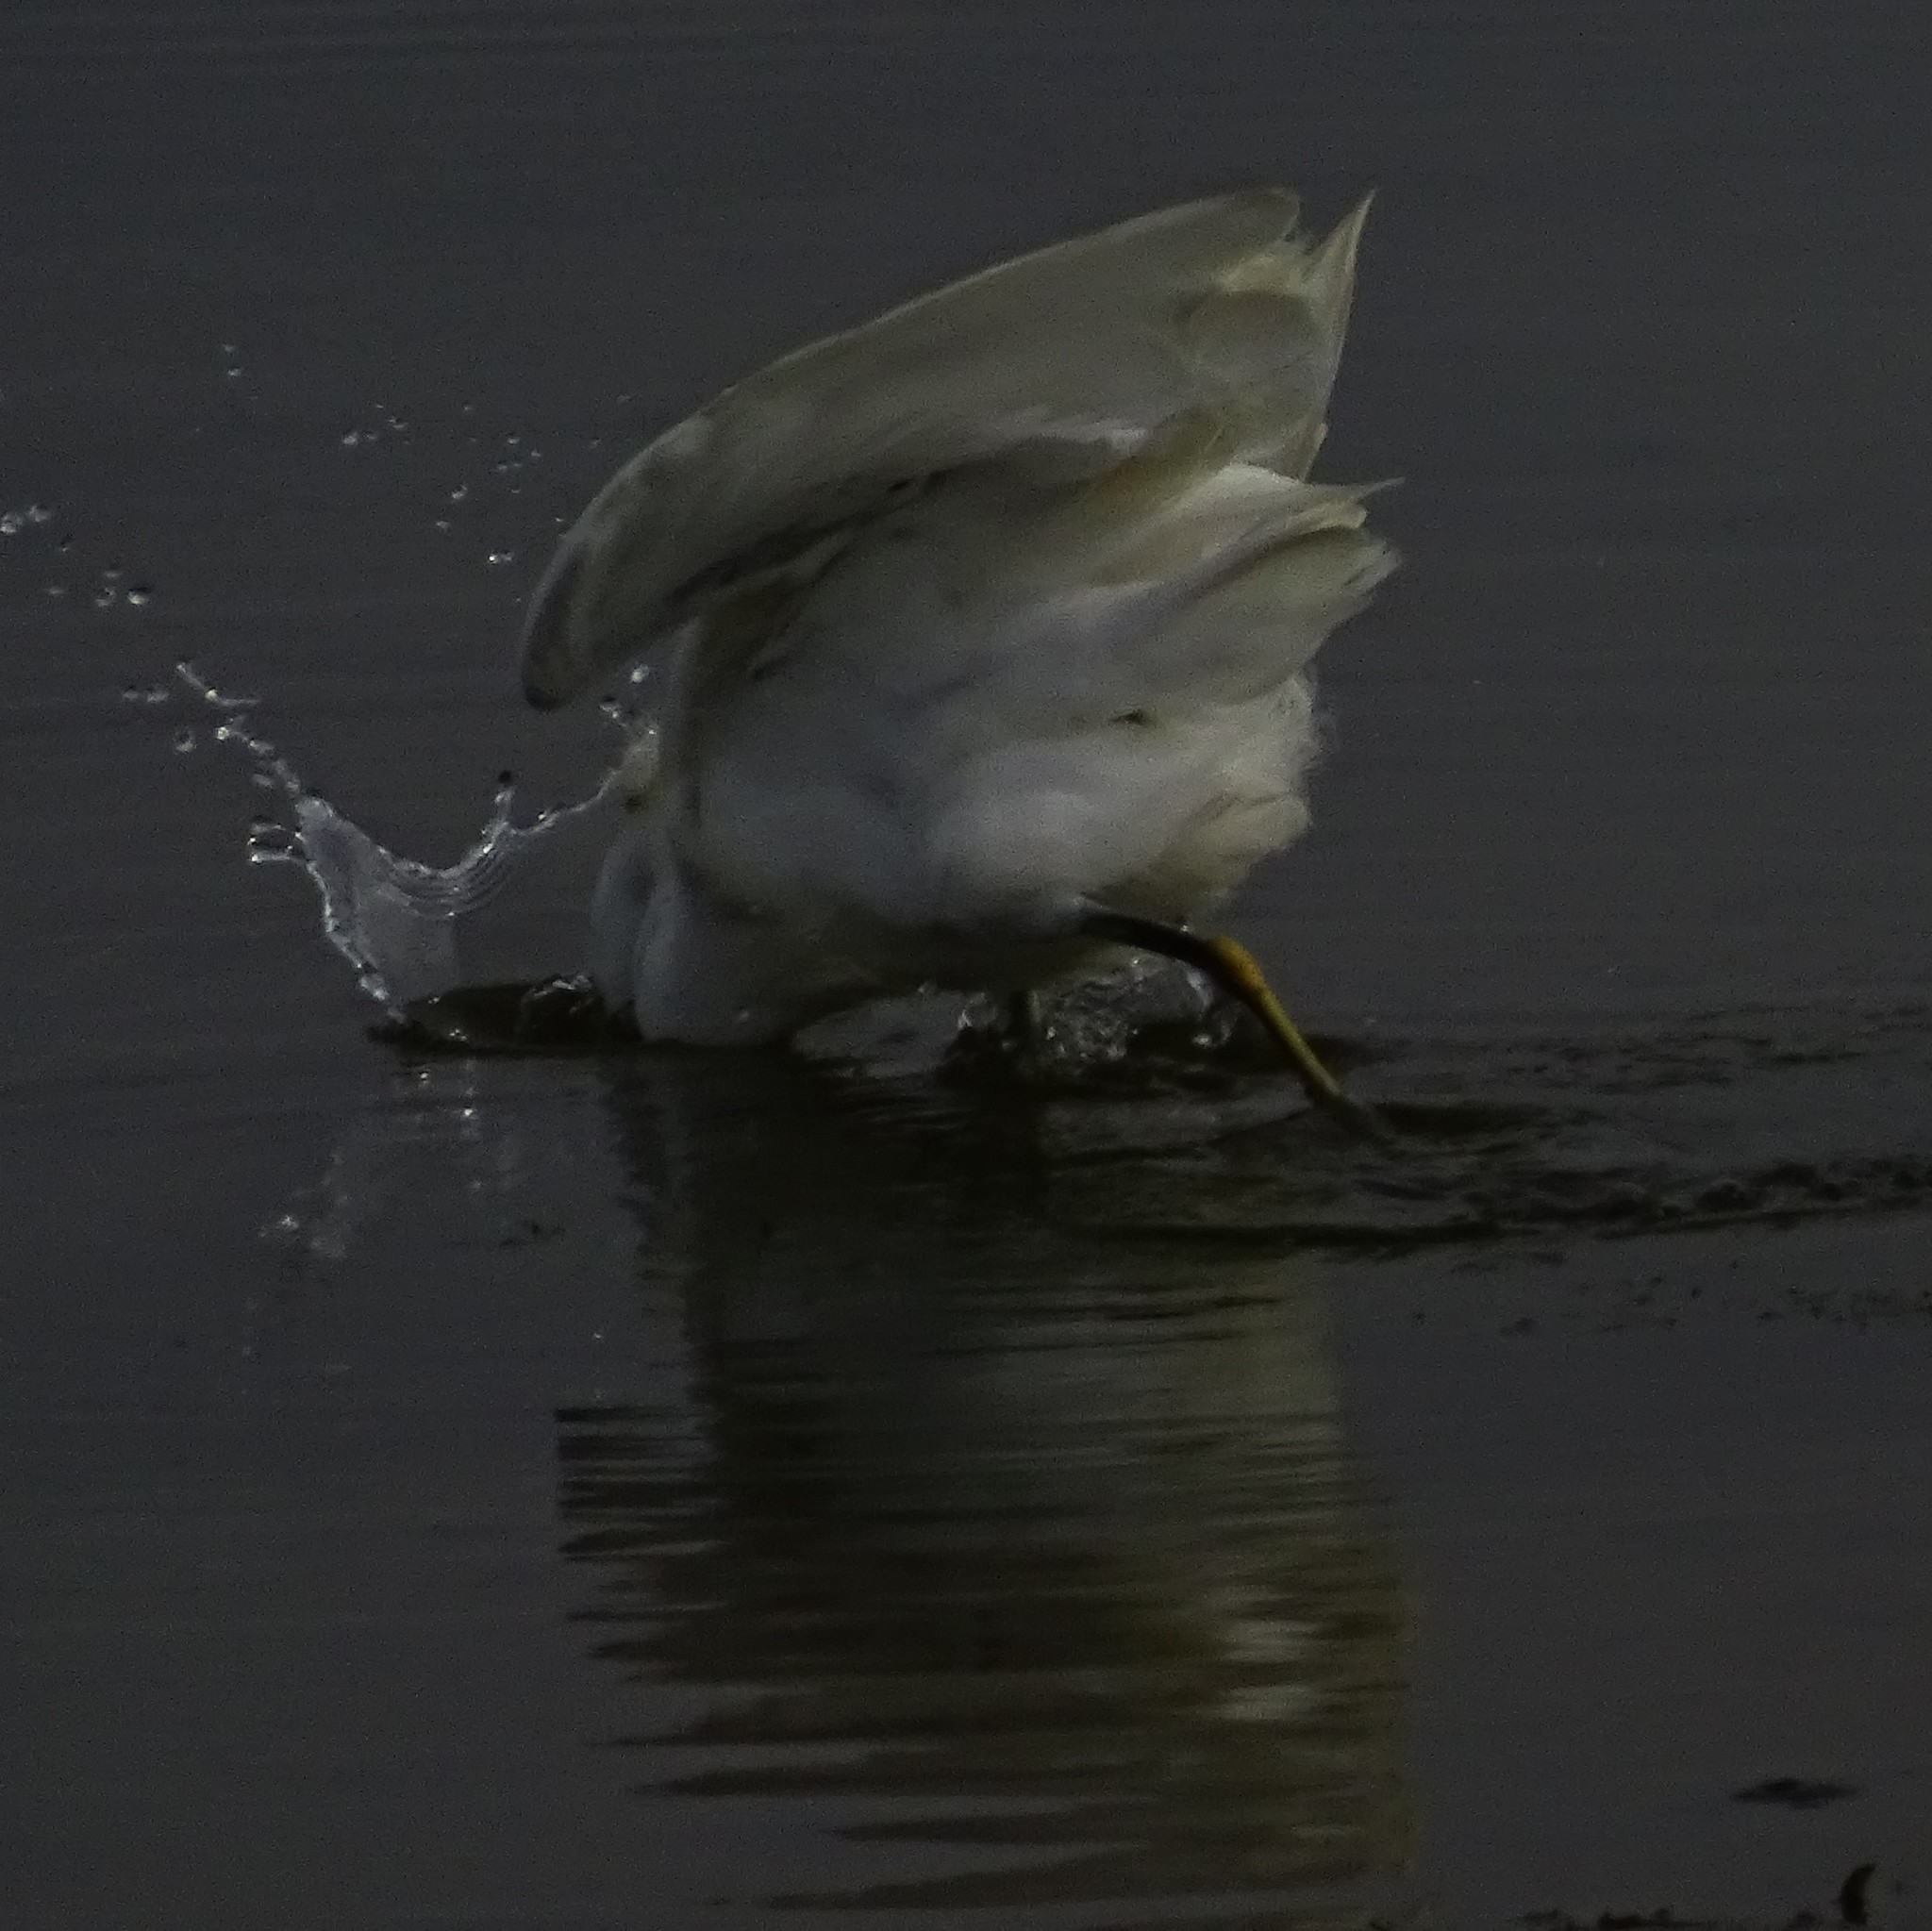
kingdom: Animalia
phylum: Chordata
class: Aves
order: Pelecaniformes
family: Ardeidae
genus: Egretta
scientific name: Egretta thula
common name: Snowy egret
